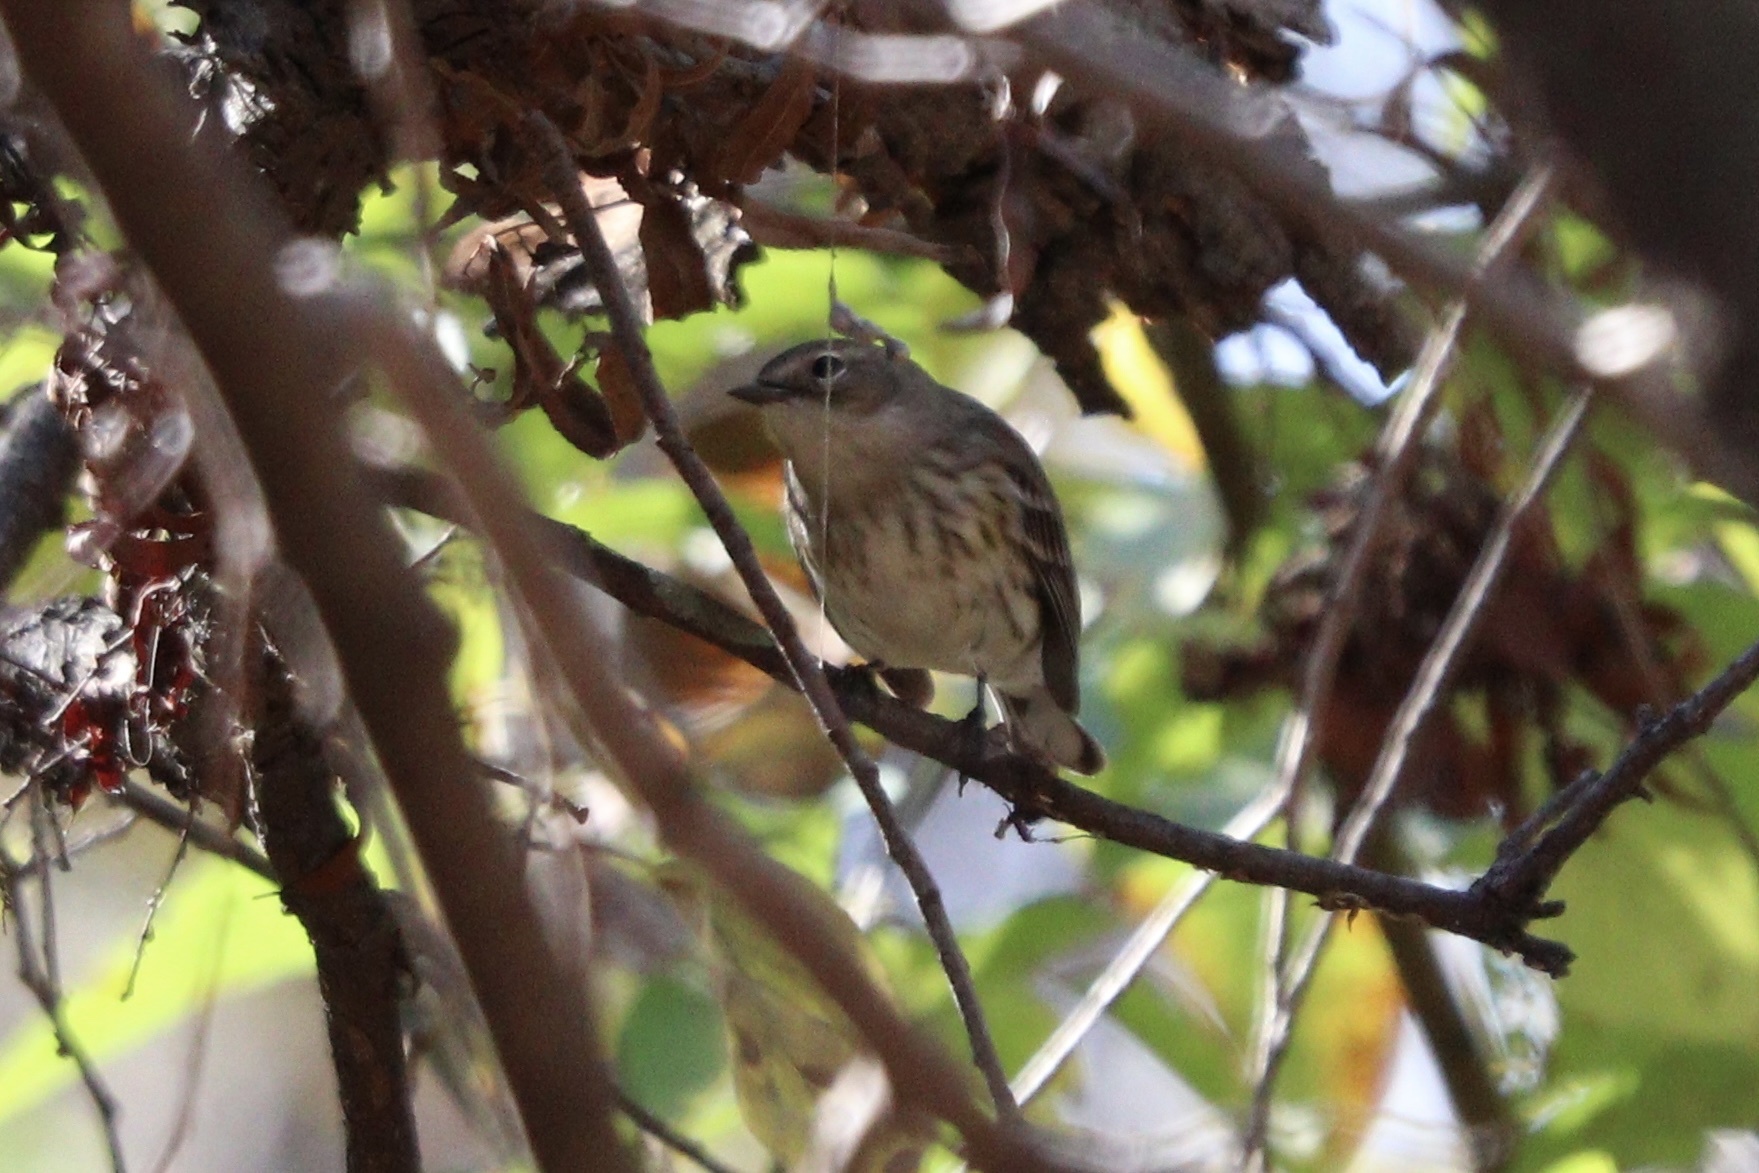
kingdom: Animalia
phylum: Chordata
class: Aves
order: Passeriformes
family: Parulidae
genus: Setophaga
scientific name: Setophaga coronata
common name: Myrtle warbler
